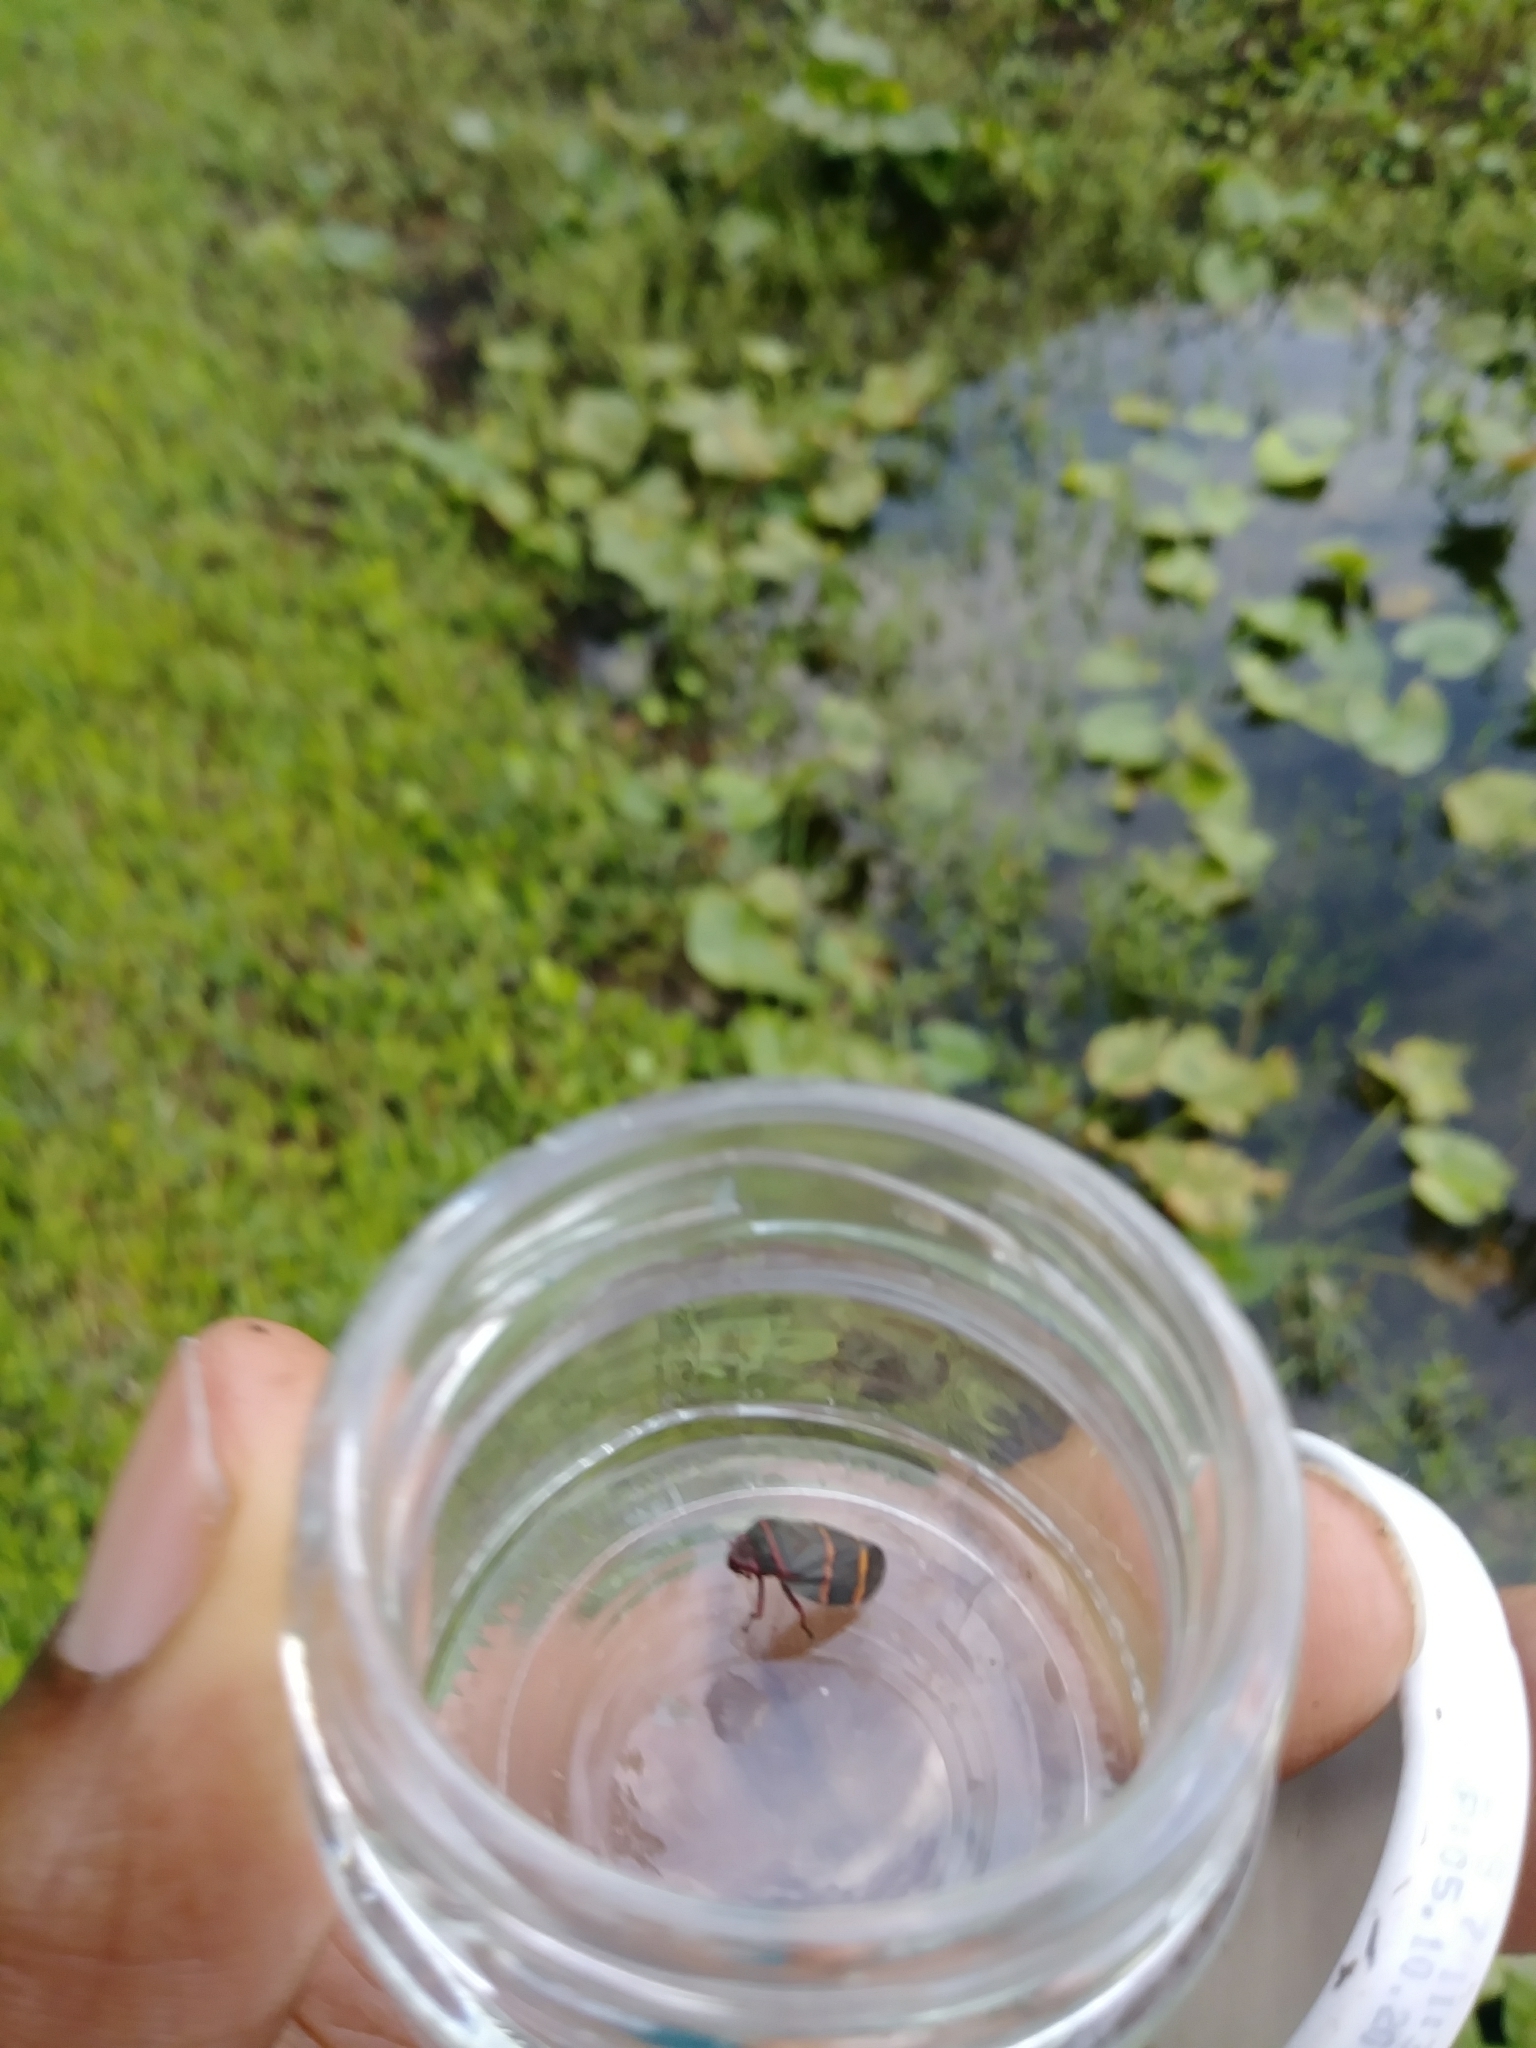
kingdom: Animalia
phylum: Arthropoda
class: Insecta
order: Hemiptera
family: Cercopidae
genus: Prosapia
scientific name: Prosapia bicincta
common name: Twolined spittlebug
